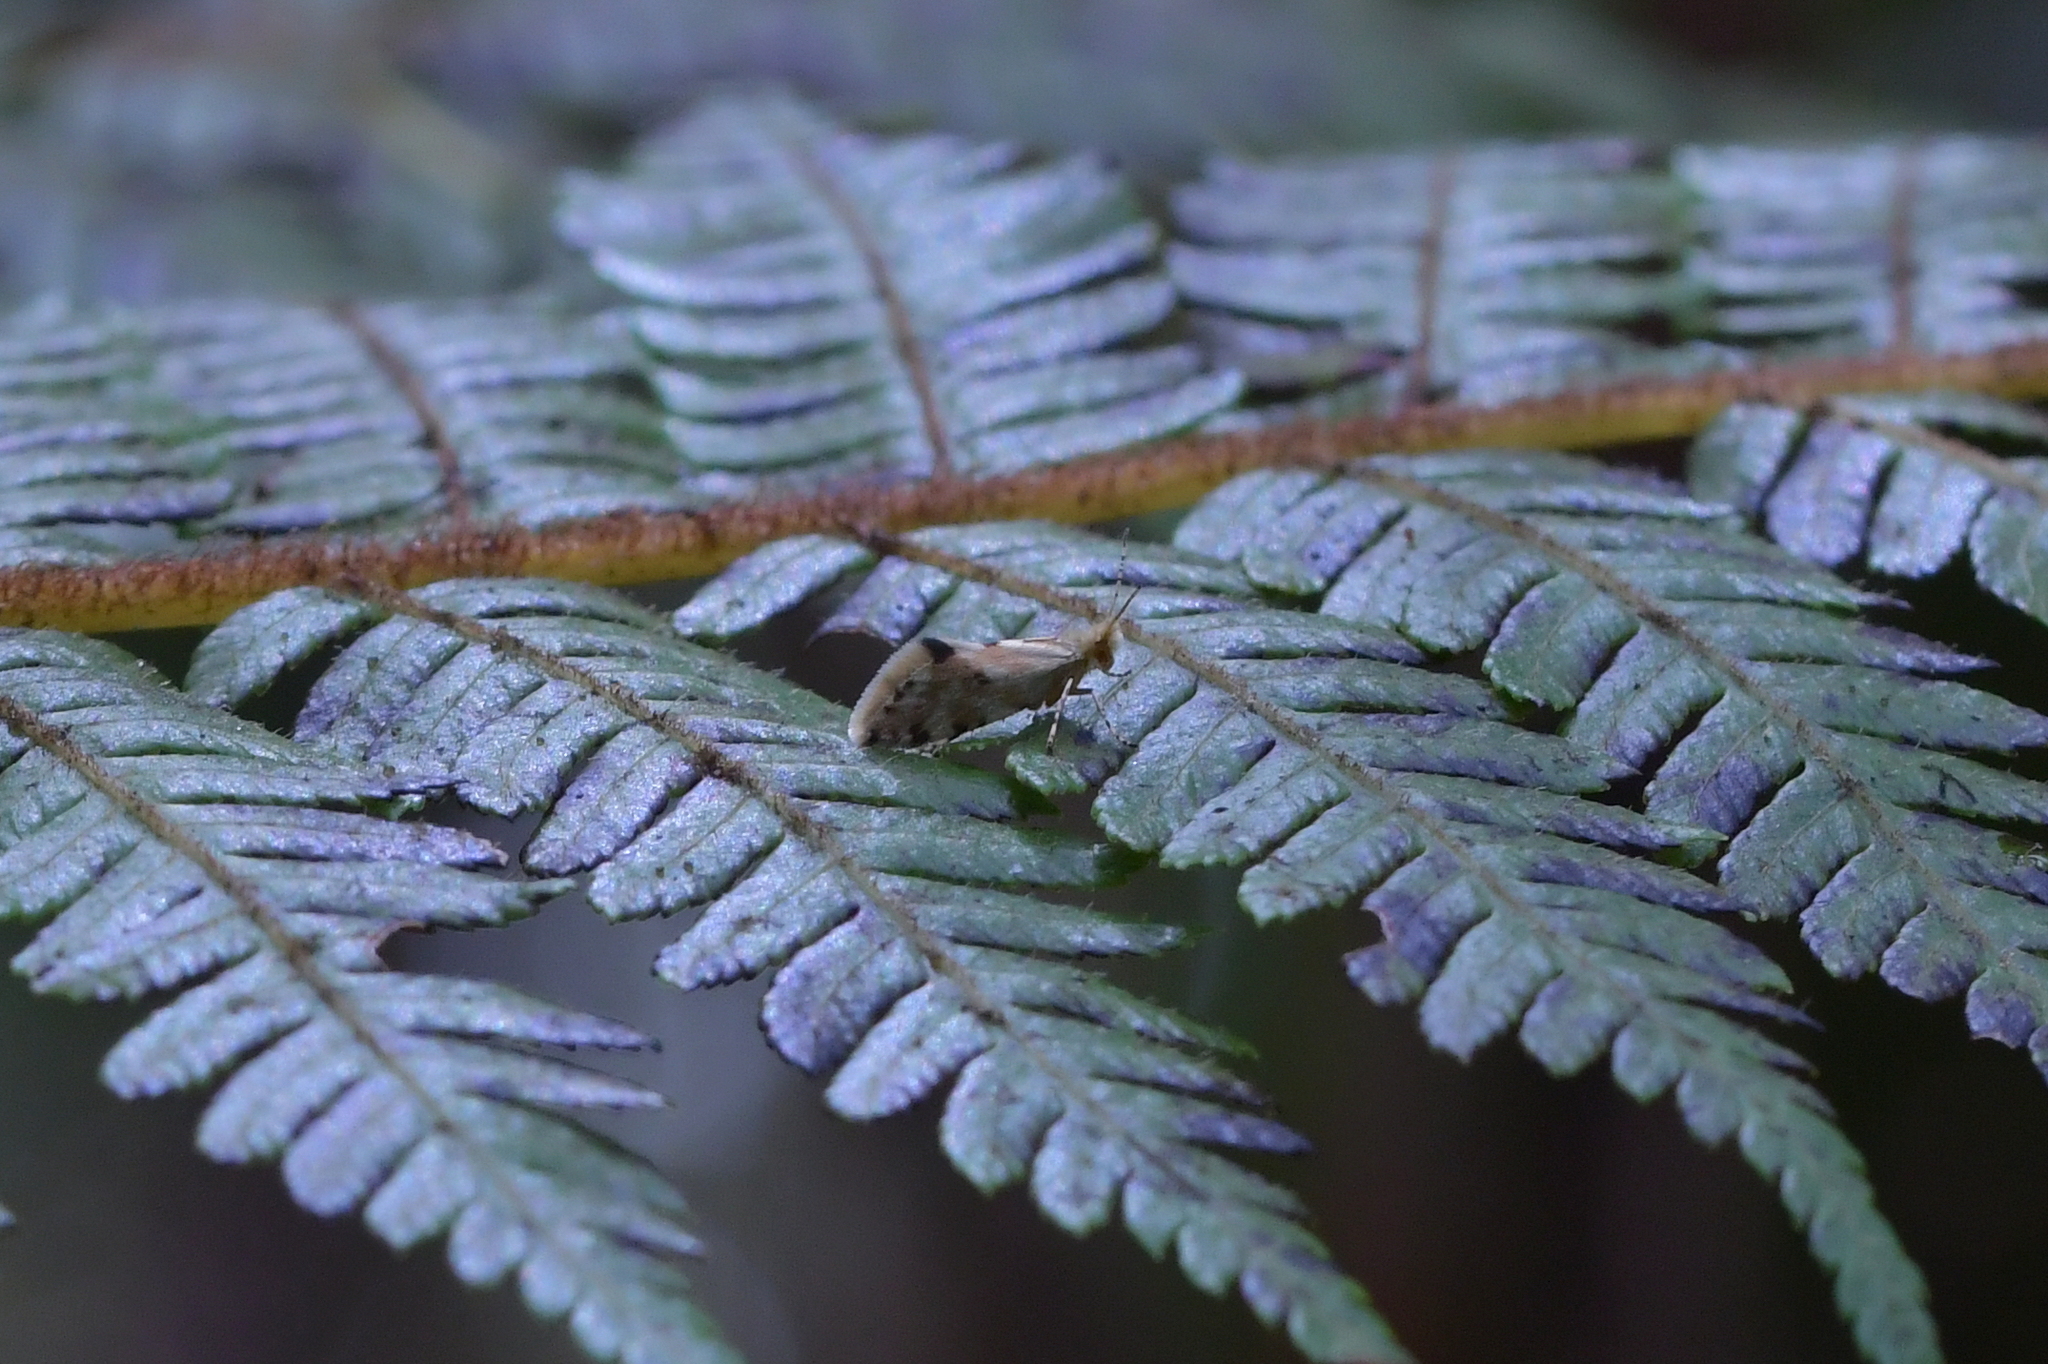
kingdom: Animalia
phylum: Arthropoda
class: Insecta
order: Lepidoptera
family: Micropterigidae
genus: Sabatinca
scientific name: Sabatinca chalcophanes
